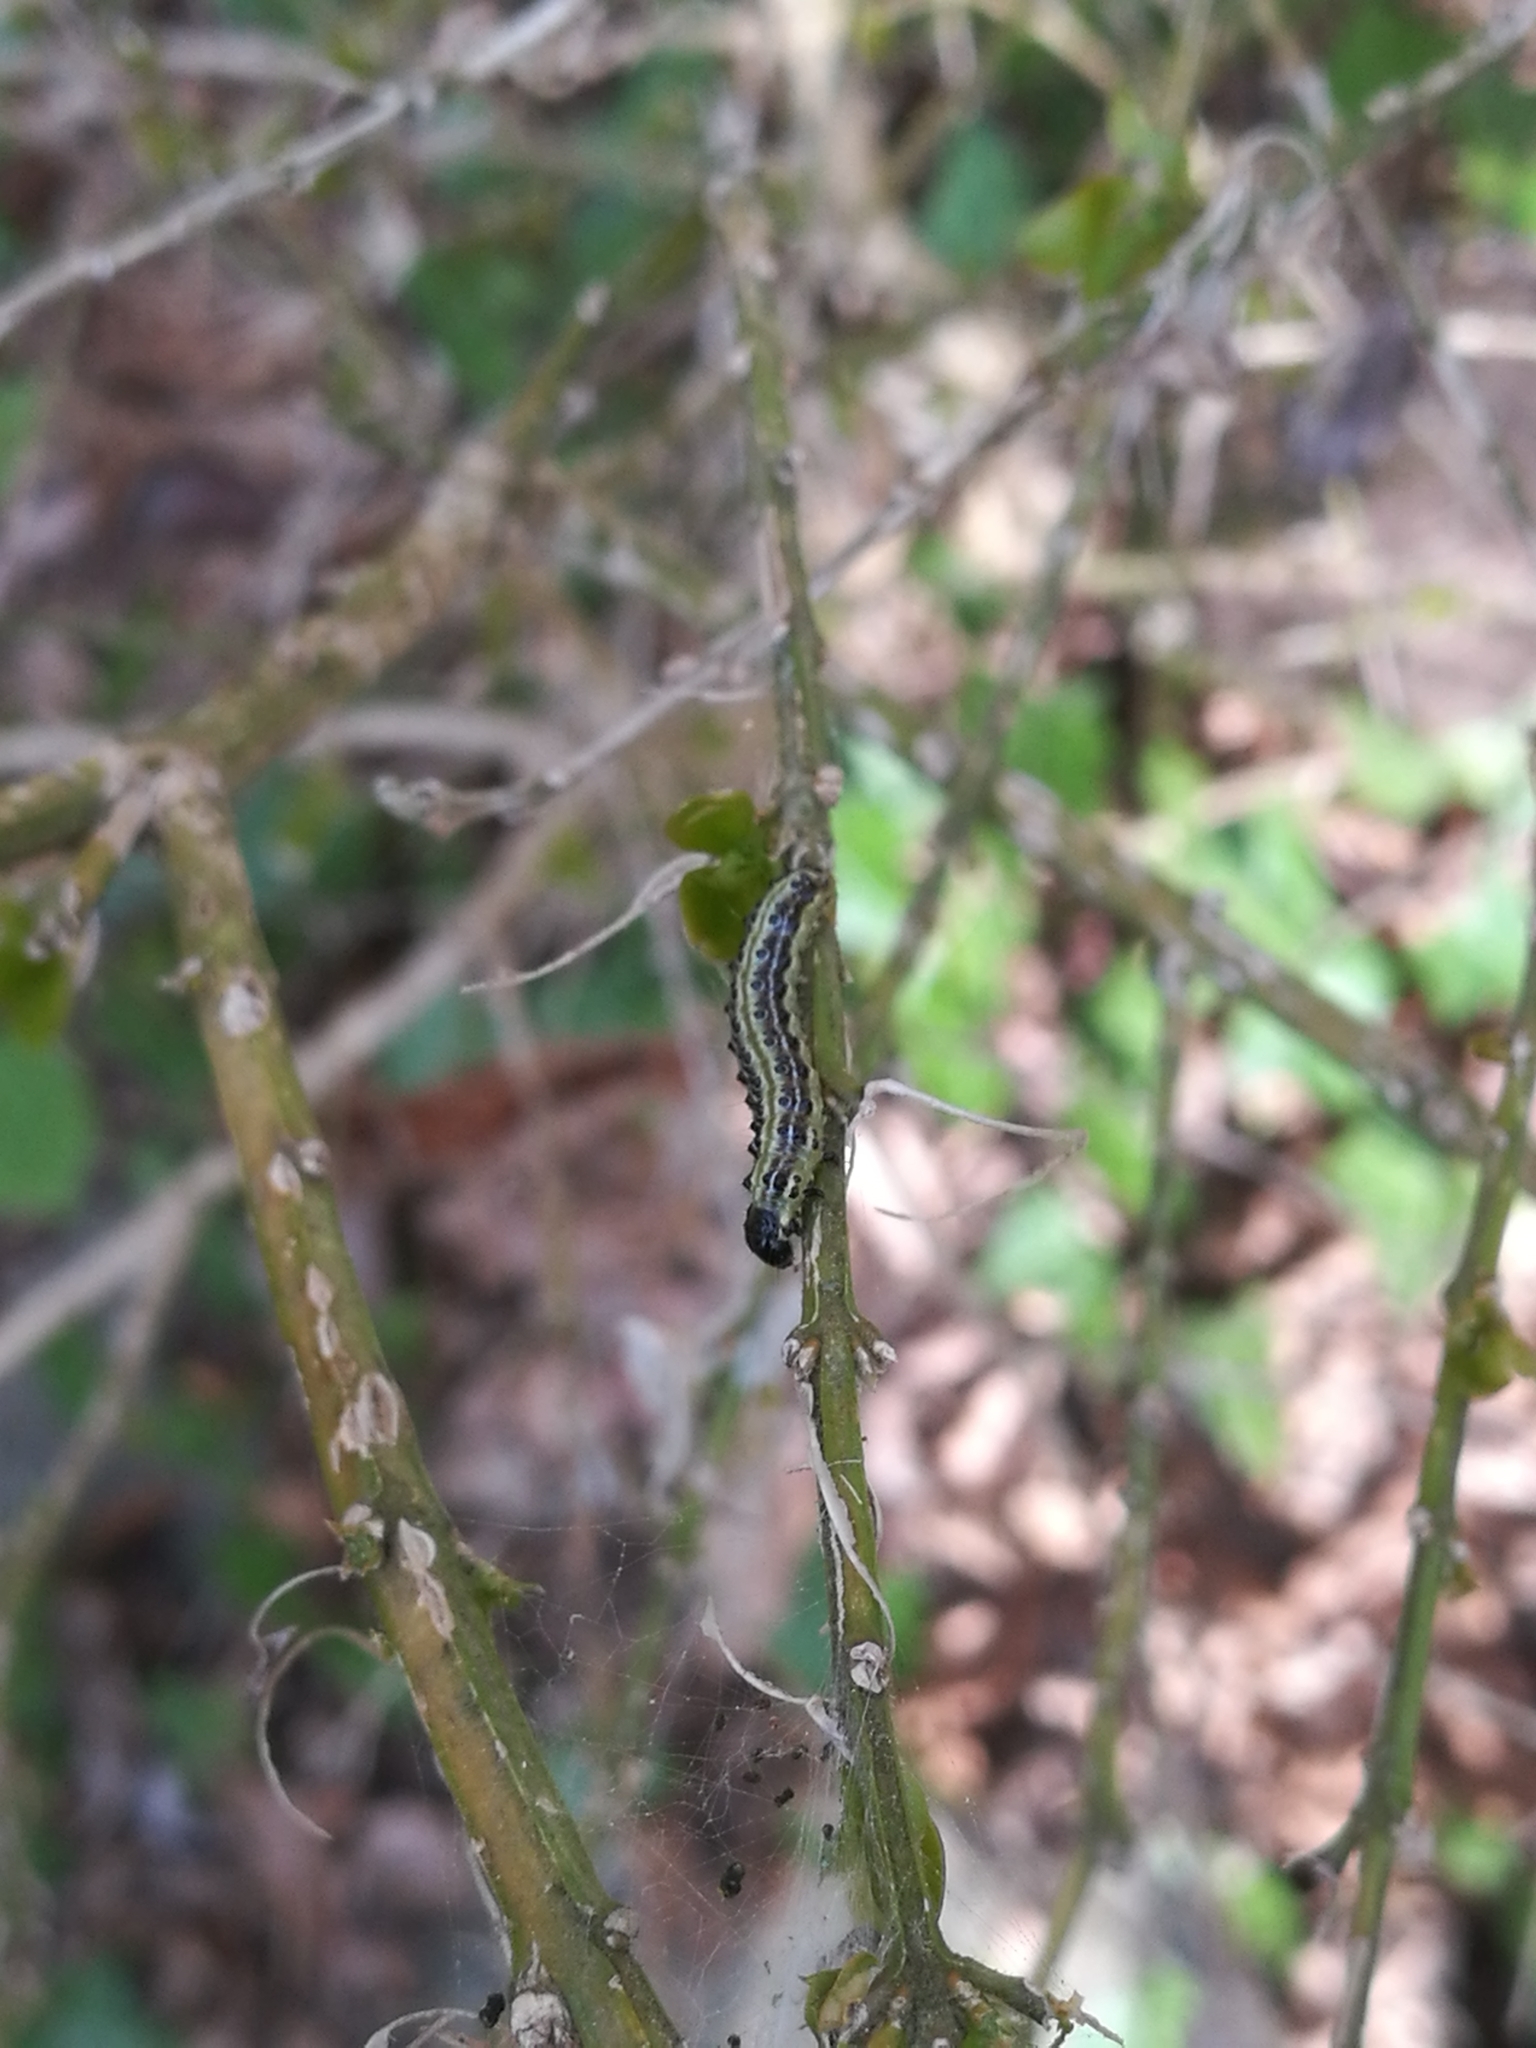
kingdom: Animalia
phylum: Arthropoda
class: Insecta
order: Lepidoptera
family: Crambidae
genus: Cydalima
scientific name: Cydalima perspectalis
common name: Box tree moth
